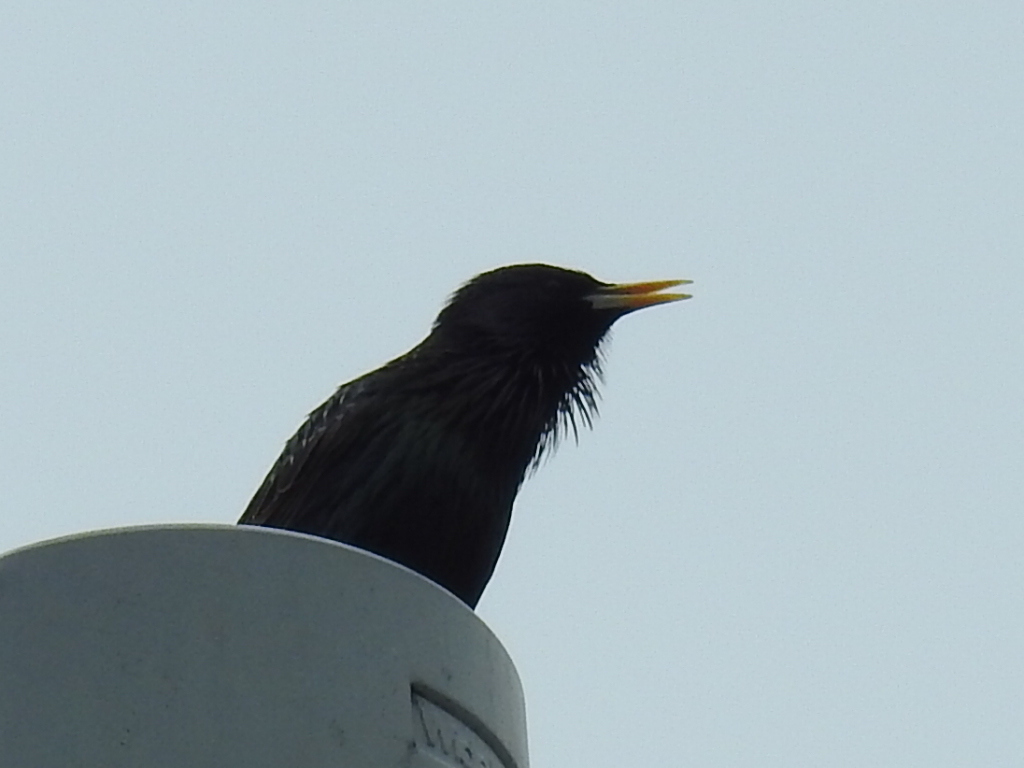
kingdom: Animalia
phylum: Chordata
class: Aves
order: Passeriformes
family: Sturnidae
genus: Sturnus
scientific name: Sturnus vulgaris
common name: Common starling
